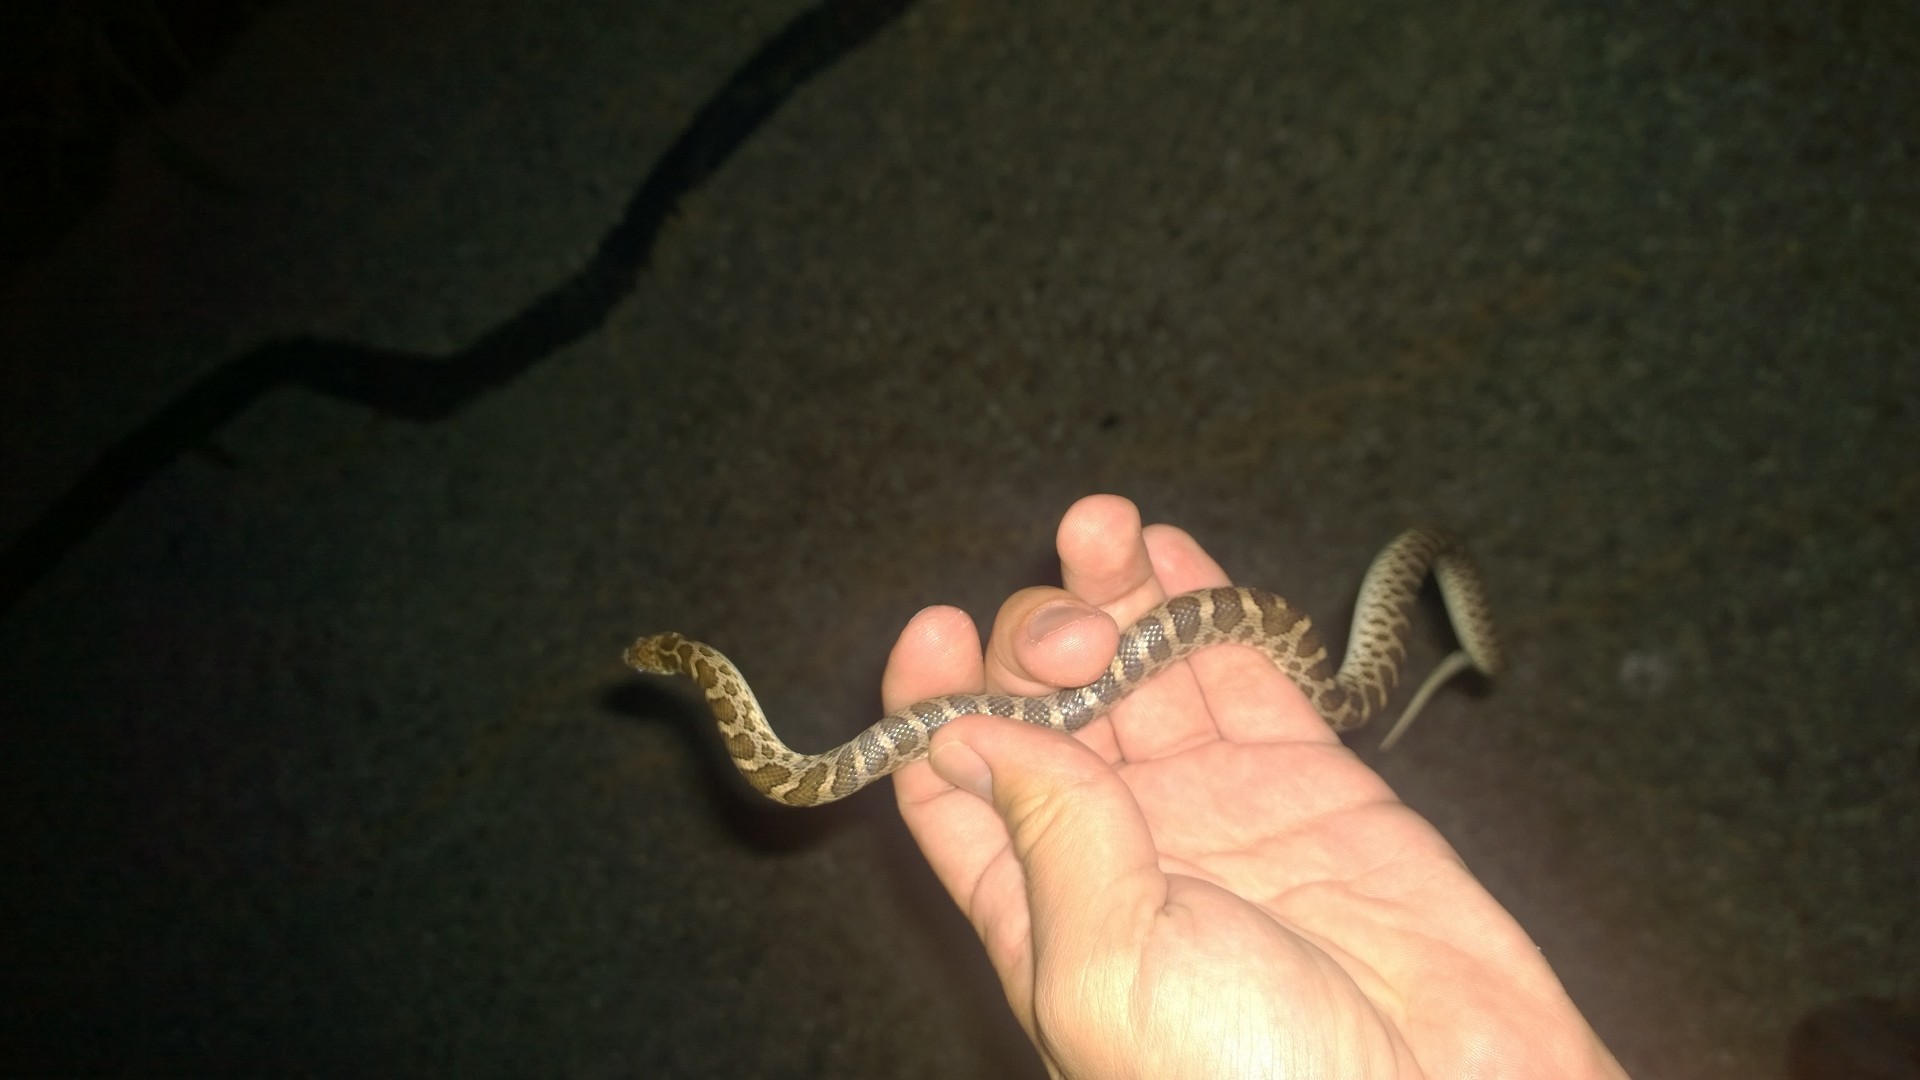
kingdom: Animalia
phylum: Chordata
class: Squamata
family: Colubridae
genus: Arizona
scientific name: Arizona elegans
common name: Glossy snake
